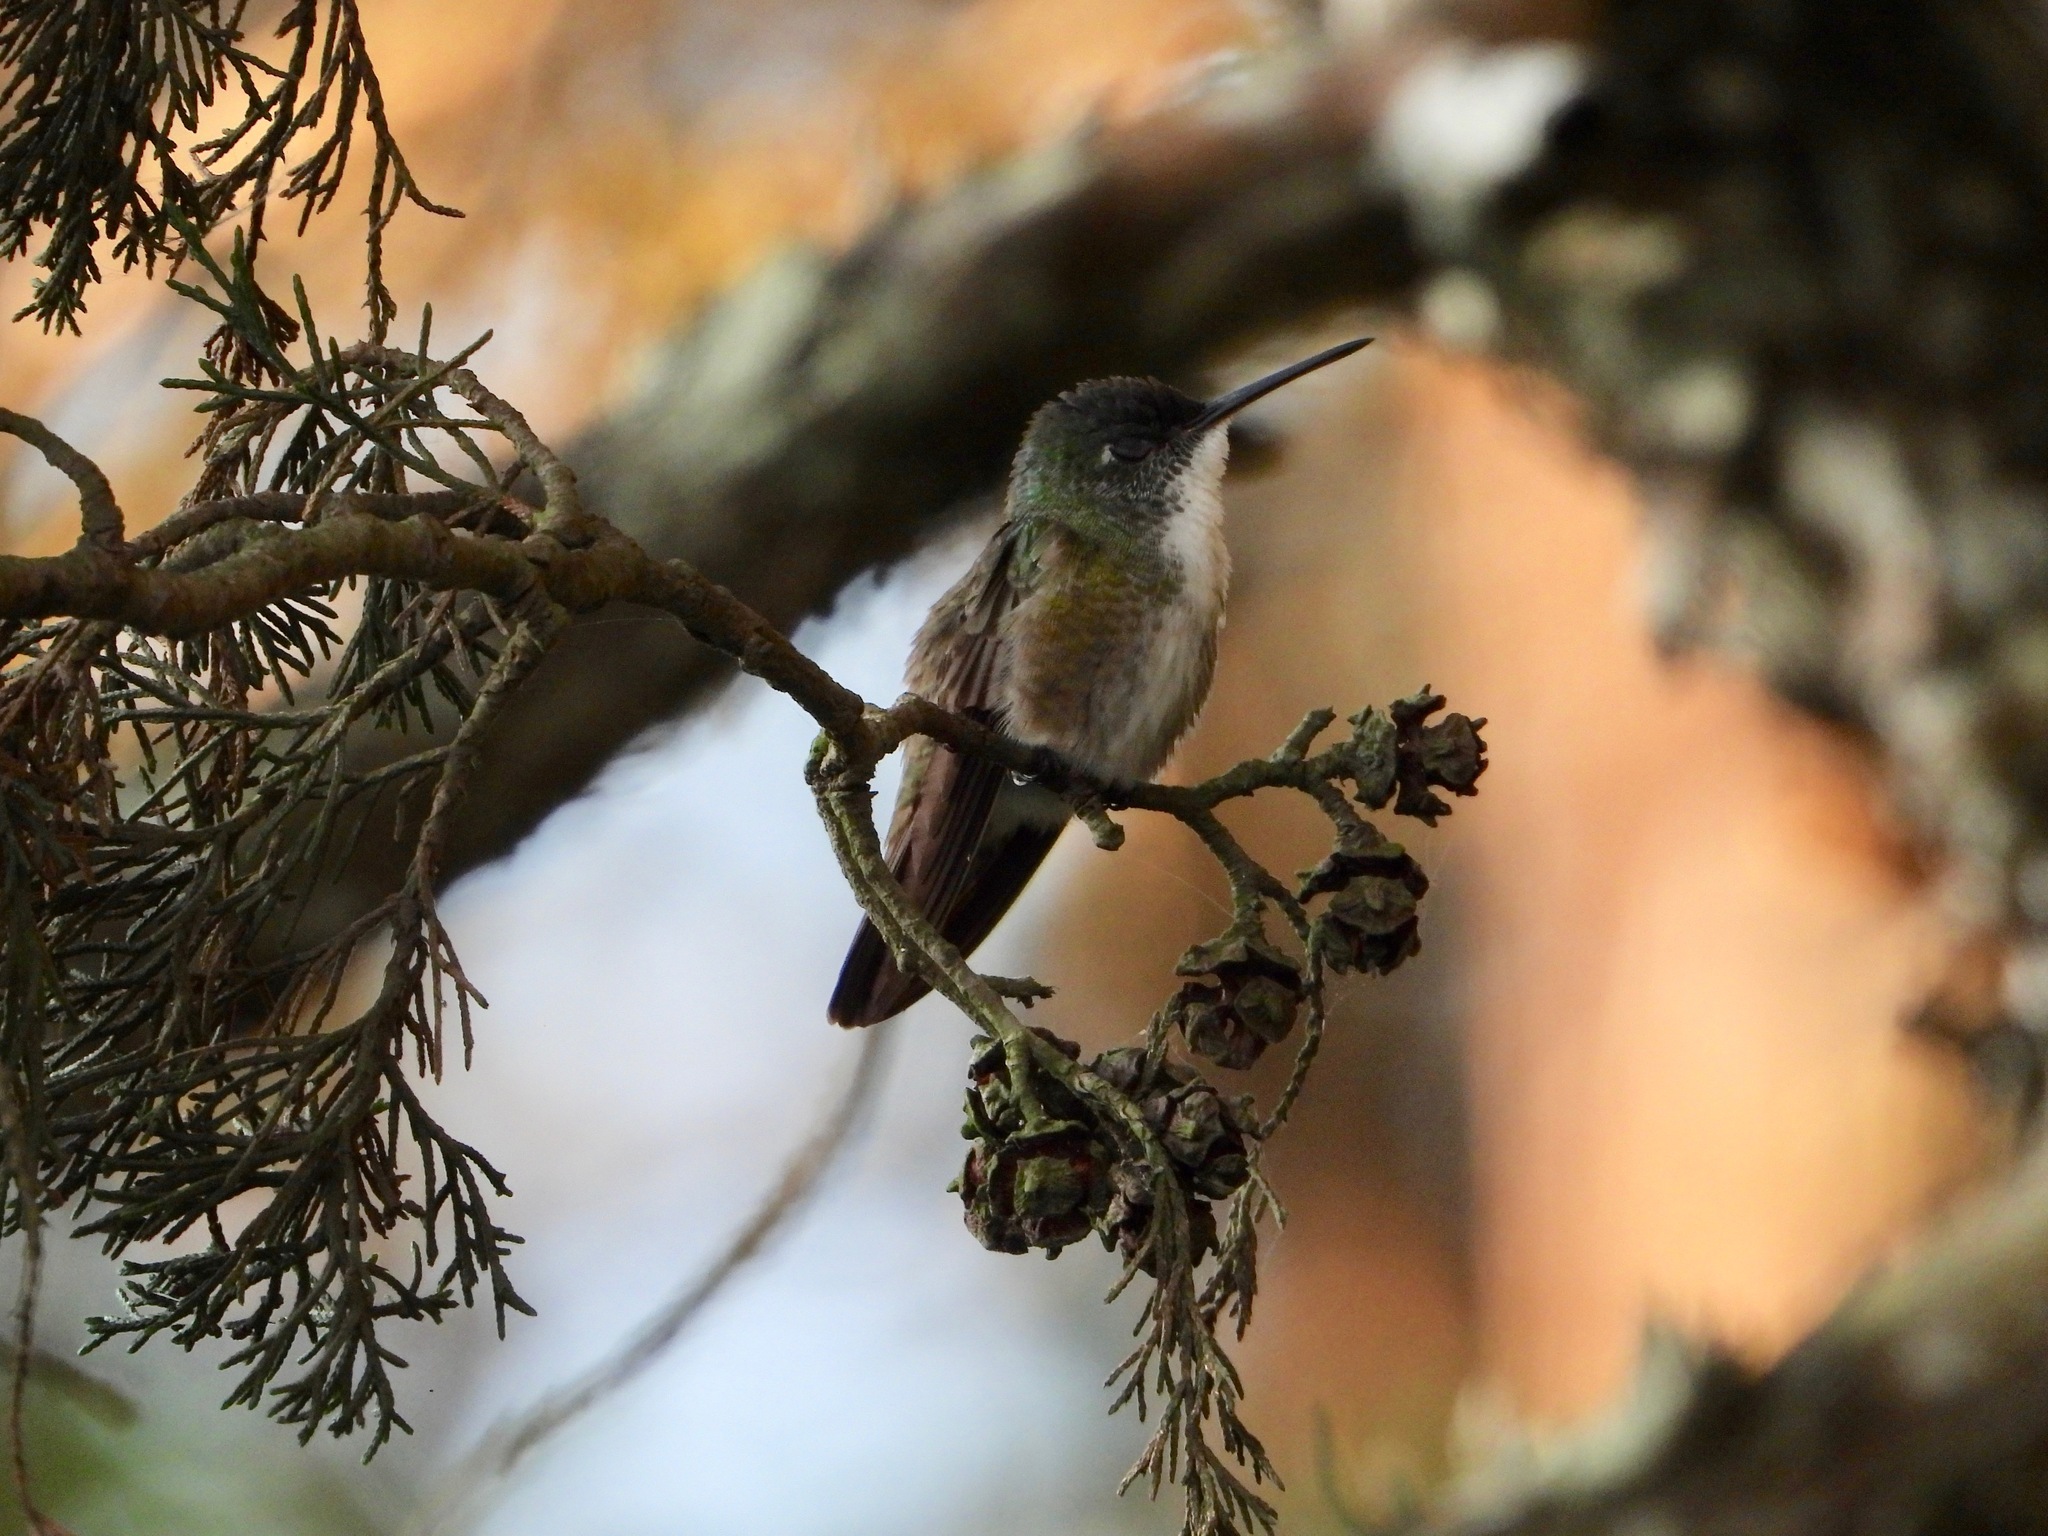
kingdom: Animalia
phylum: Chordata
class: Aves
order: Apodiformes
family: Trochilidae
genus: Saucerottia
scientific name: Saucerottia cyanocephala
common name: Azure-crowned hummingbird
